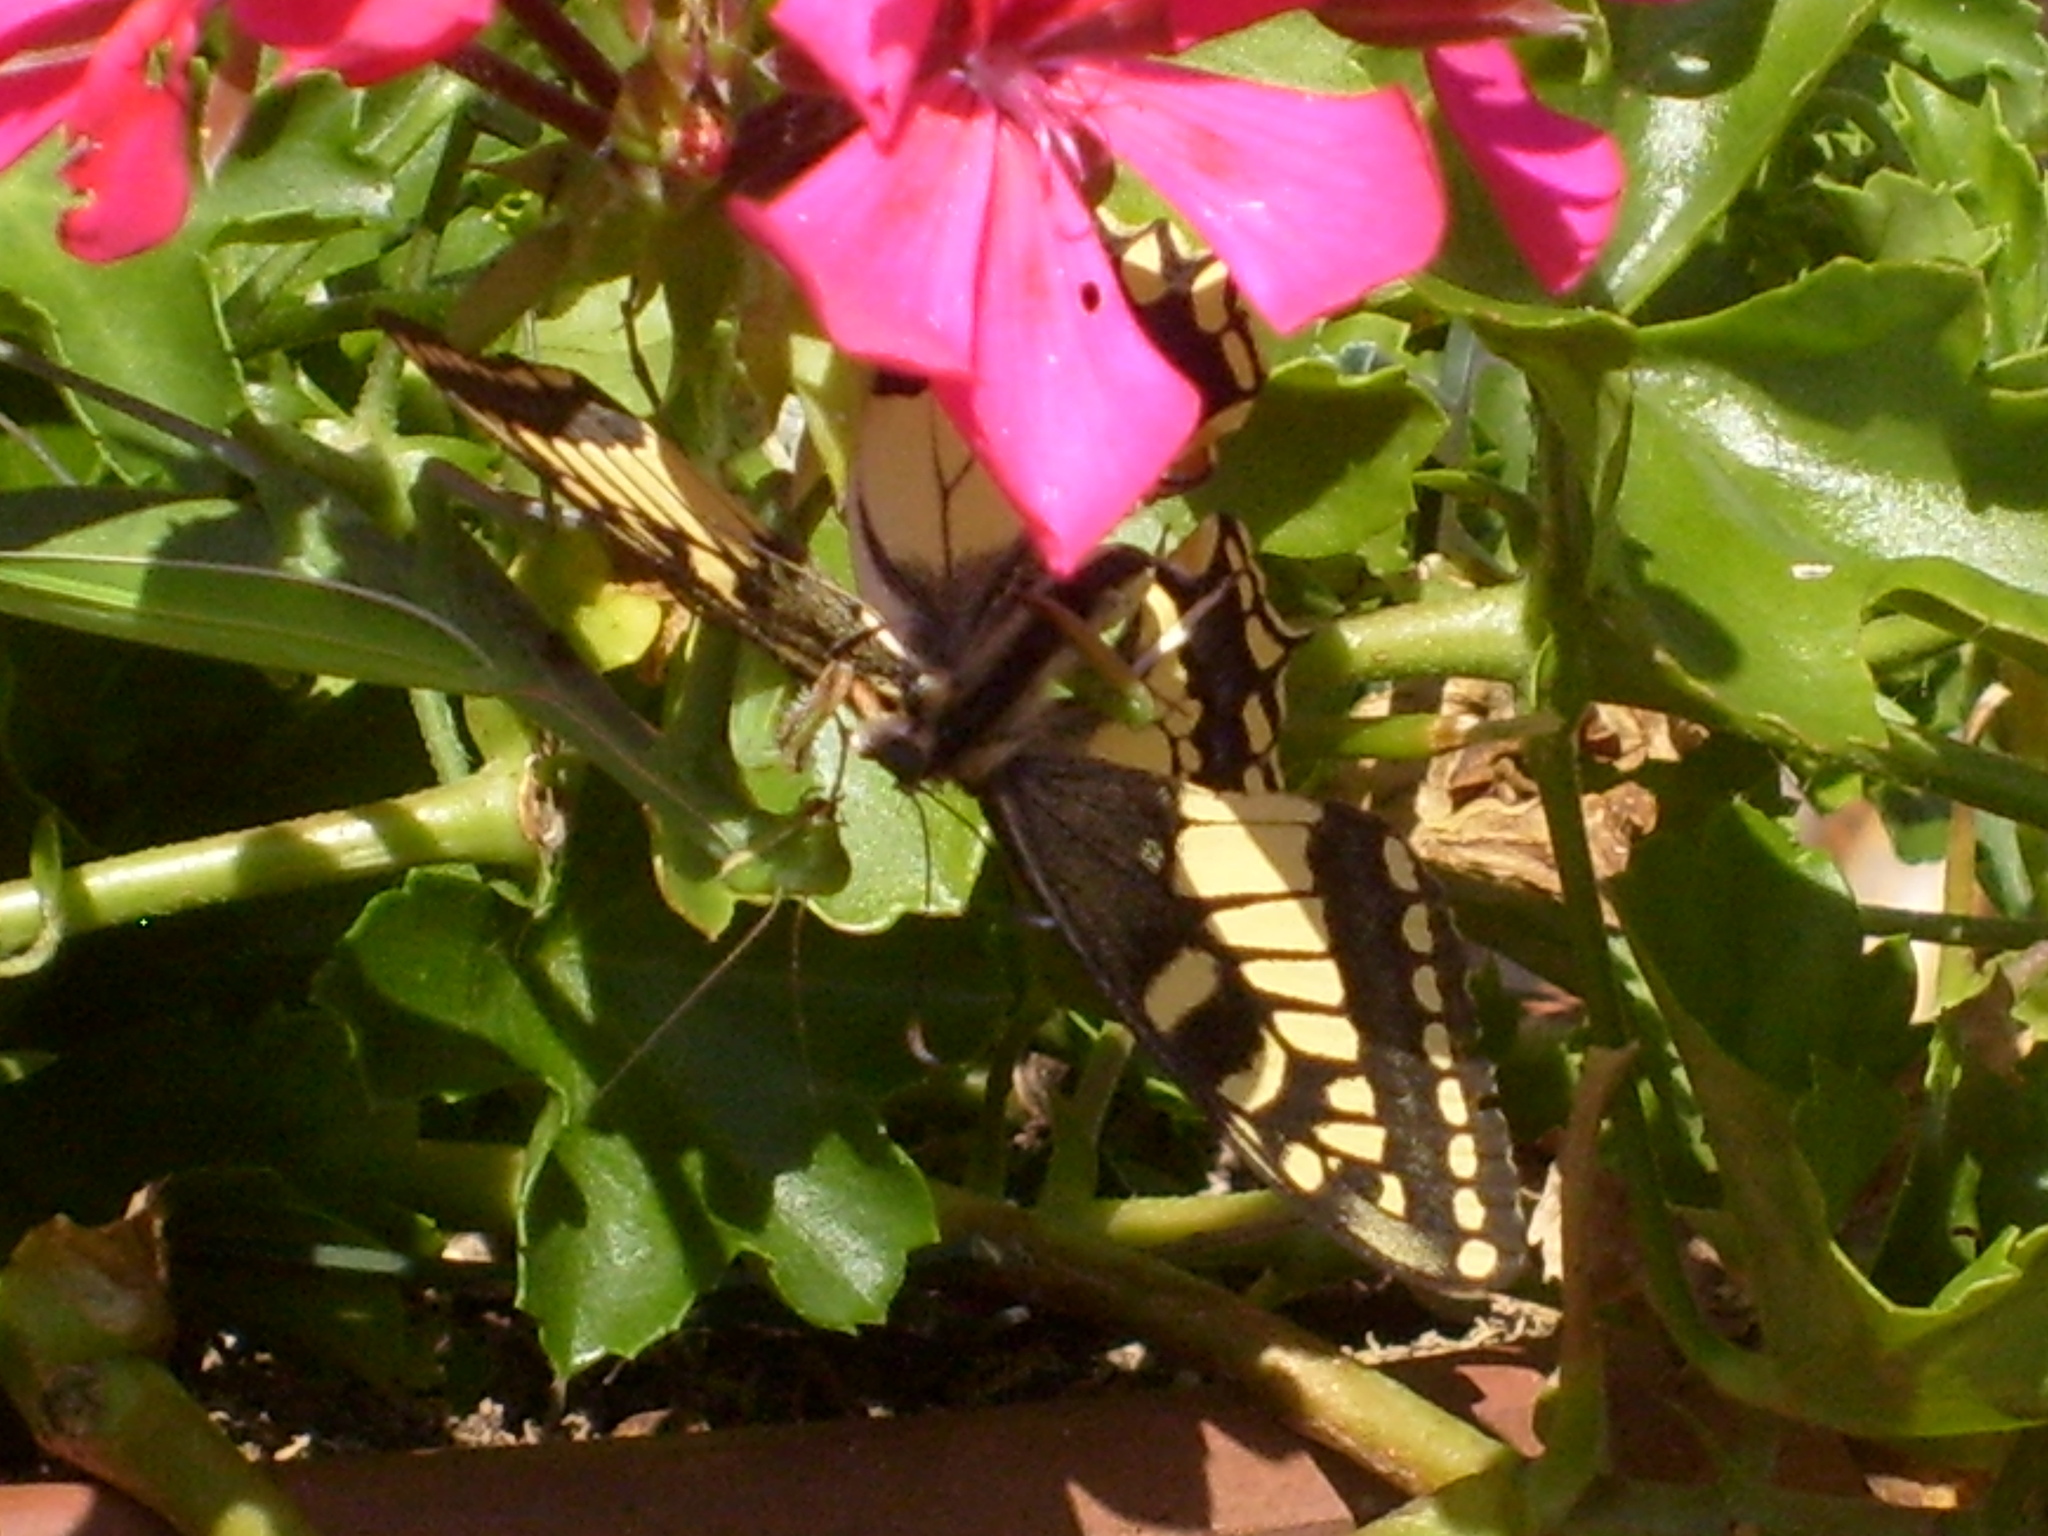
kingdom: Animalia
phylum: Arthropoda
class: Insecta
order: Lepidoptera
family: Papilionidae
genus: Papilio
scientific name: Papilio machaon
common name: Swallowtail
